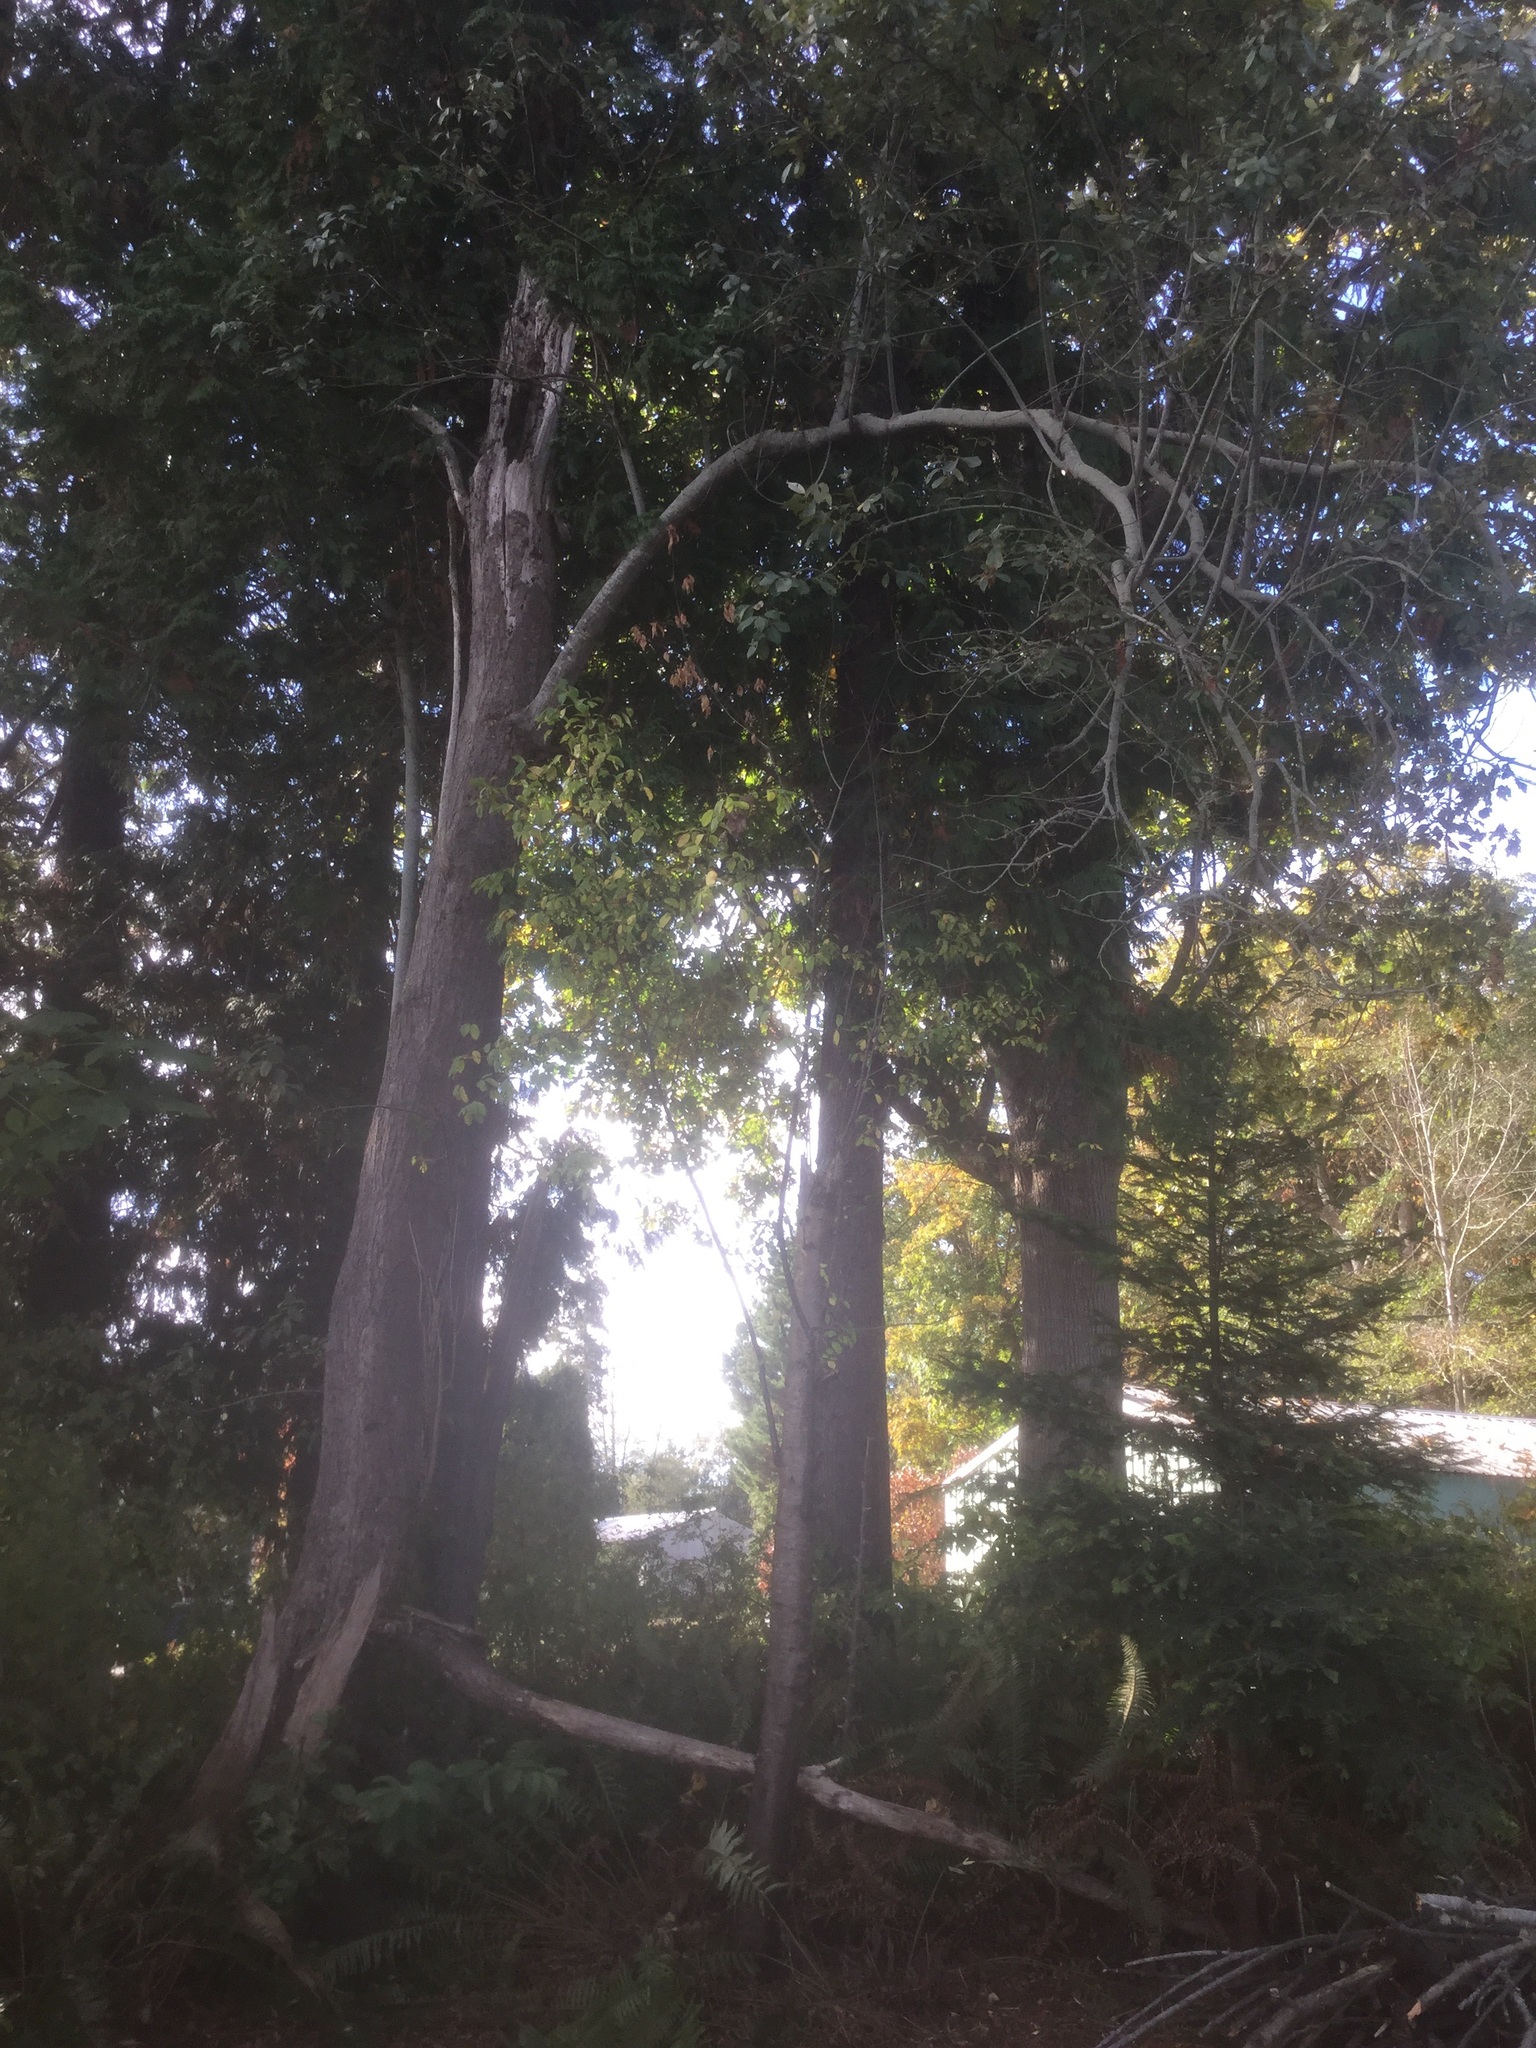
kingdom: Plantae
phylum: Tracheophyta
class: Magnoliopsida
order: Malpighiales
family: Salicaceae
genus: Salix
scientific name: Salix sitchensis
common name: Sitka willow
